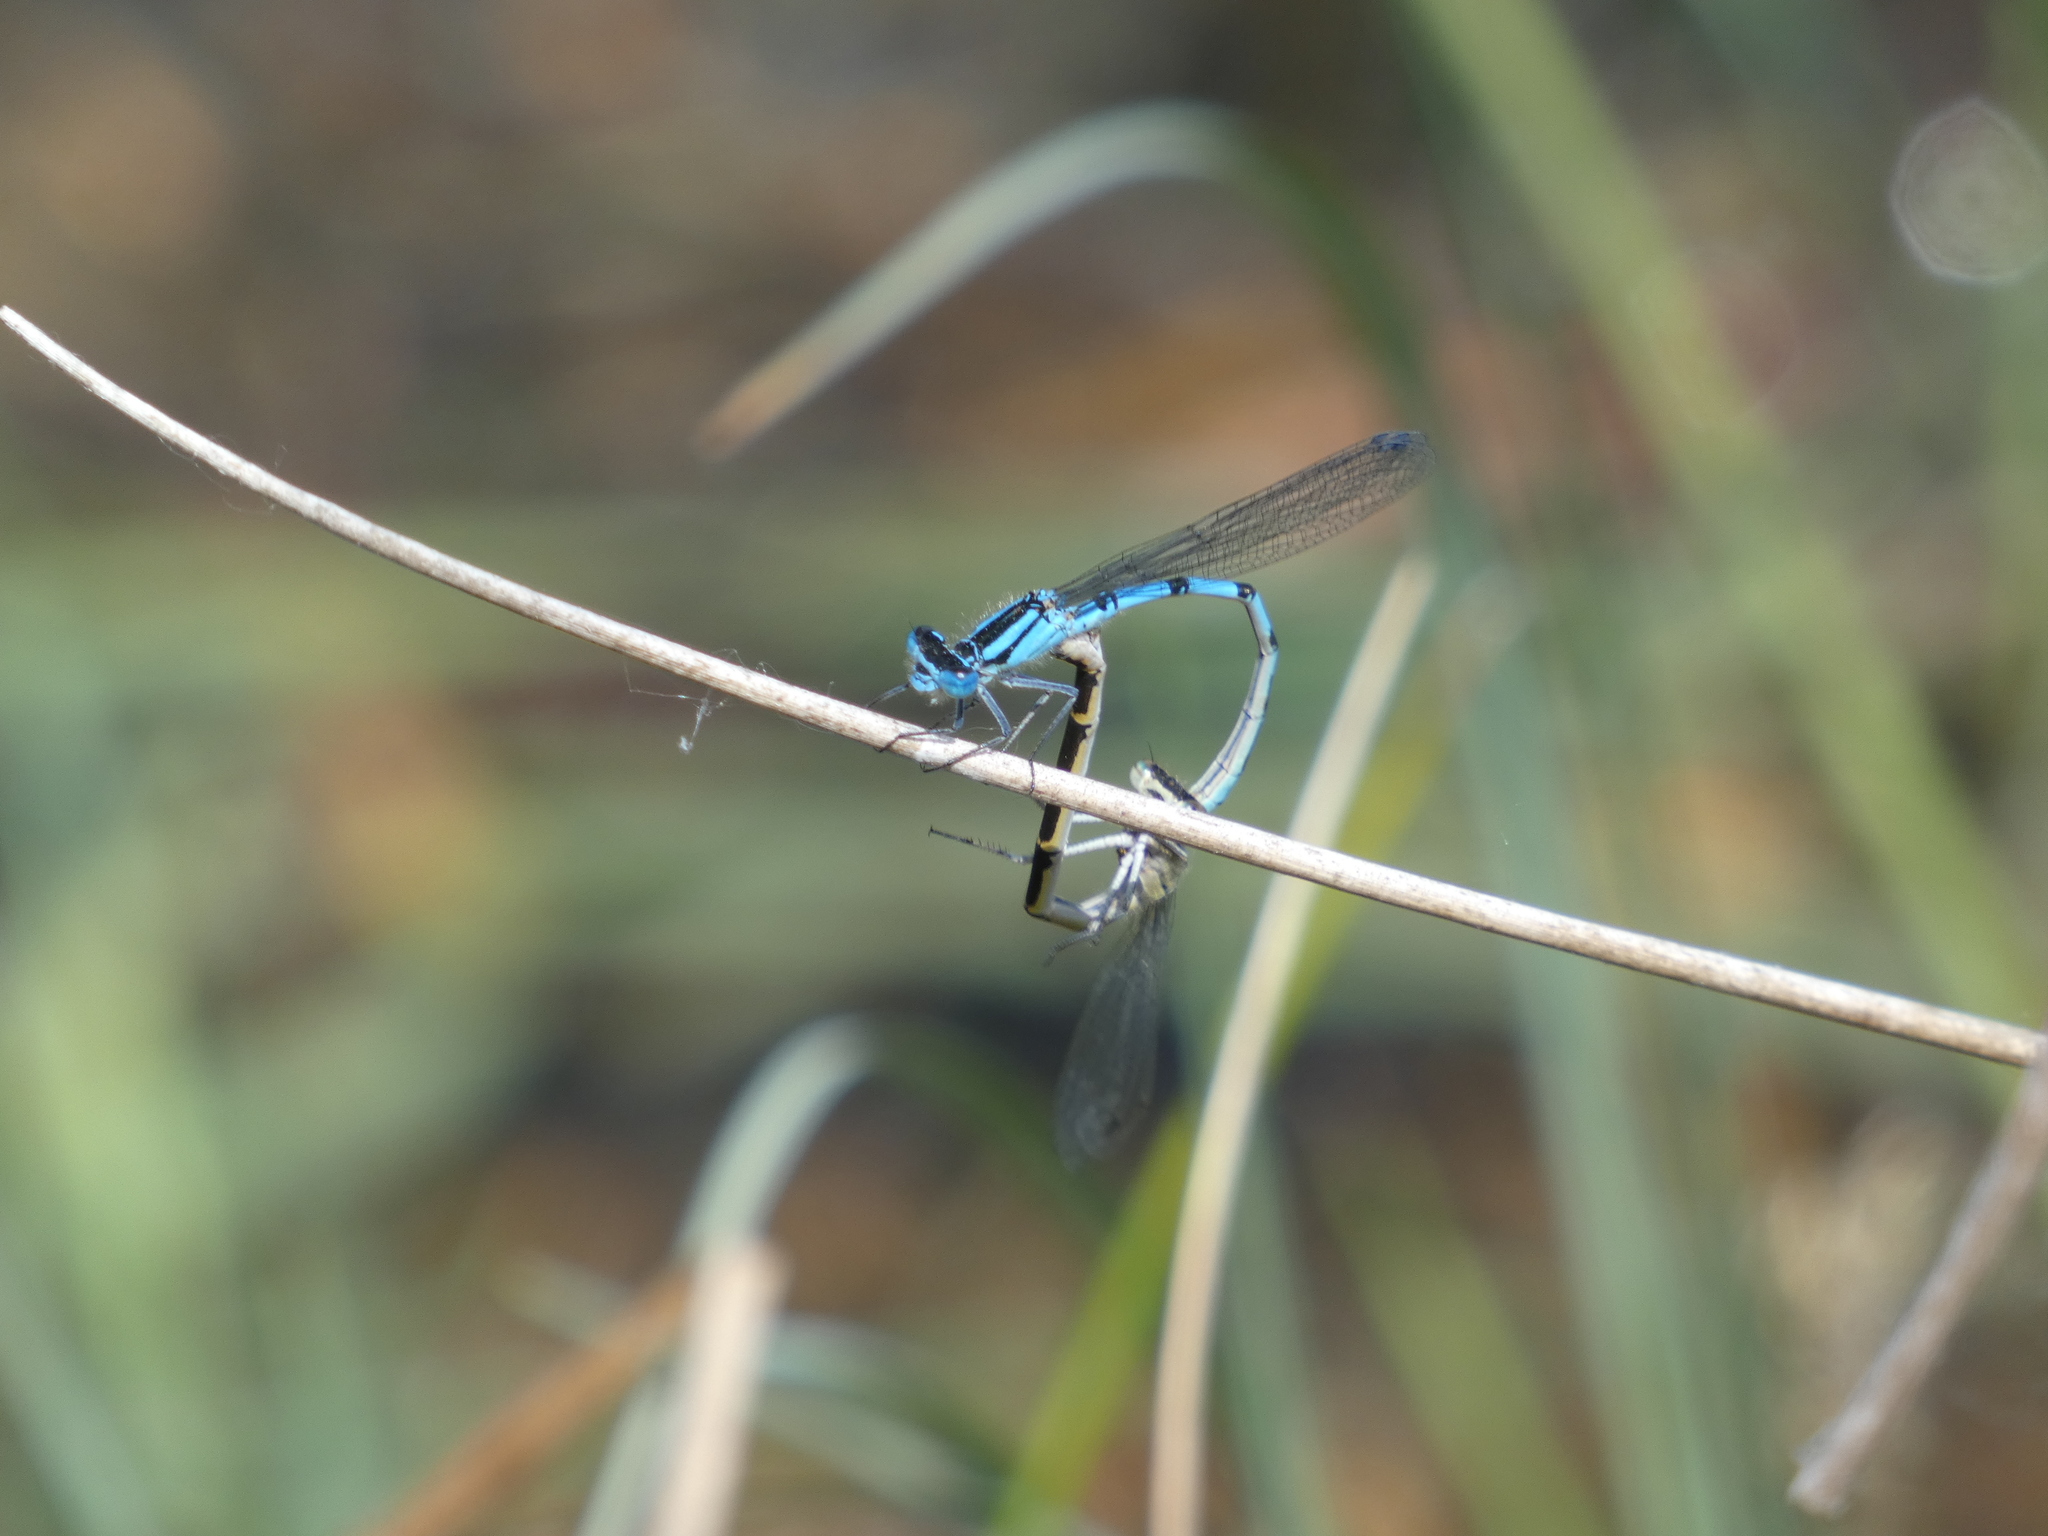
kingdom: Animalia
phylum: Arthropoda
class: Insecta
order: Odonata
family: Coenagrionidae
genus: Enallagma
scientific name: Enallagma cyathigerum
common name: Common blue damselfly
